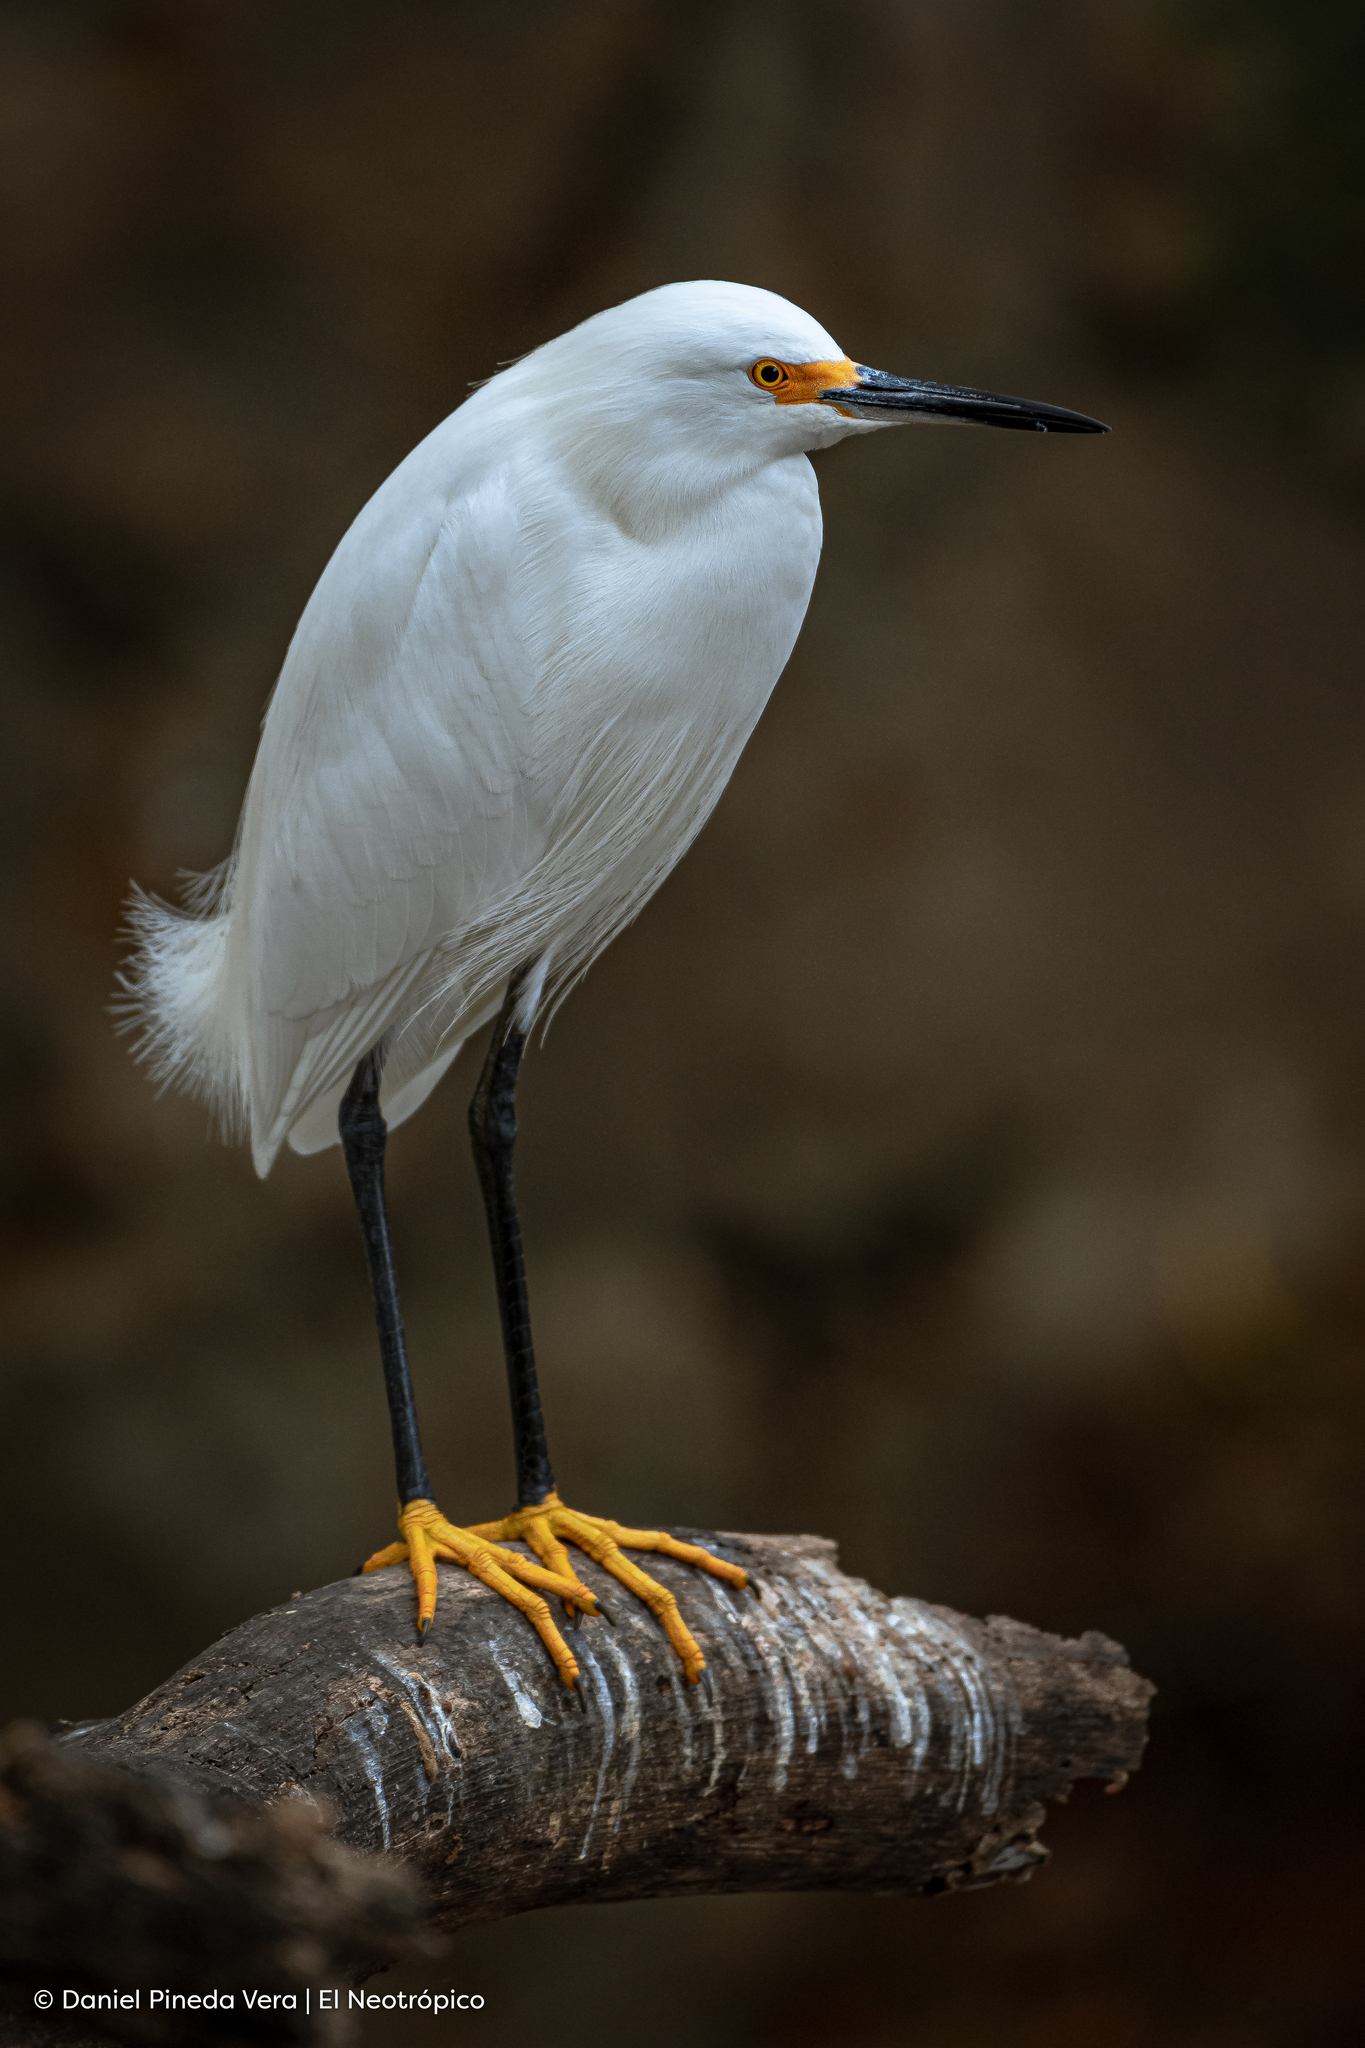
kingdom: Animalia
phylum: Chordata
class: Aves
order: Pelecaniformes
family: Ardeidae
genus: Egretta
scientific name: Egretta thula
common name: Snowy egret
